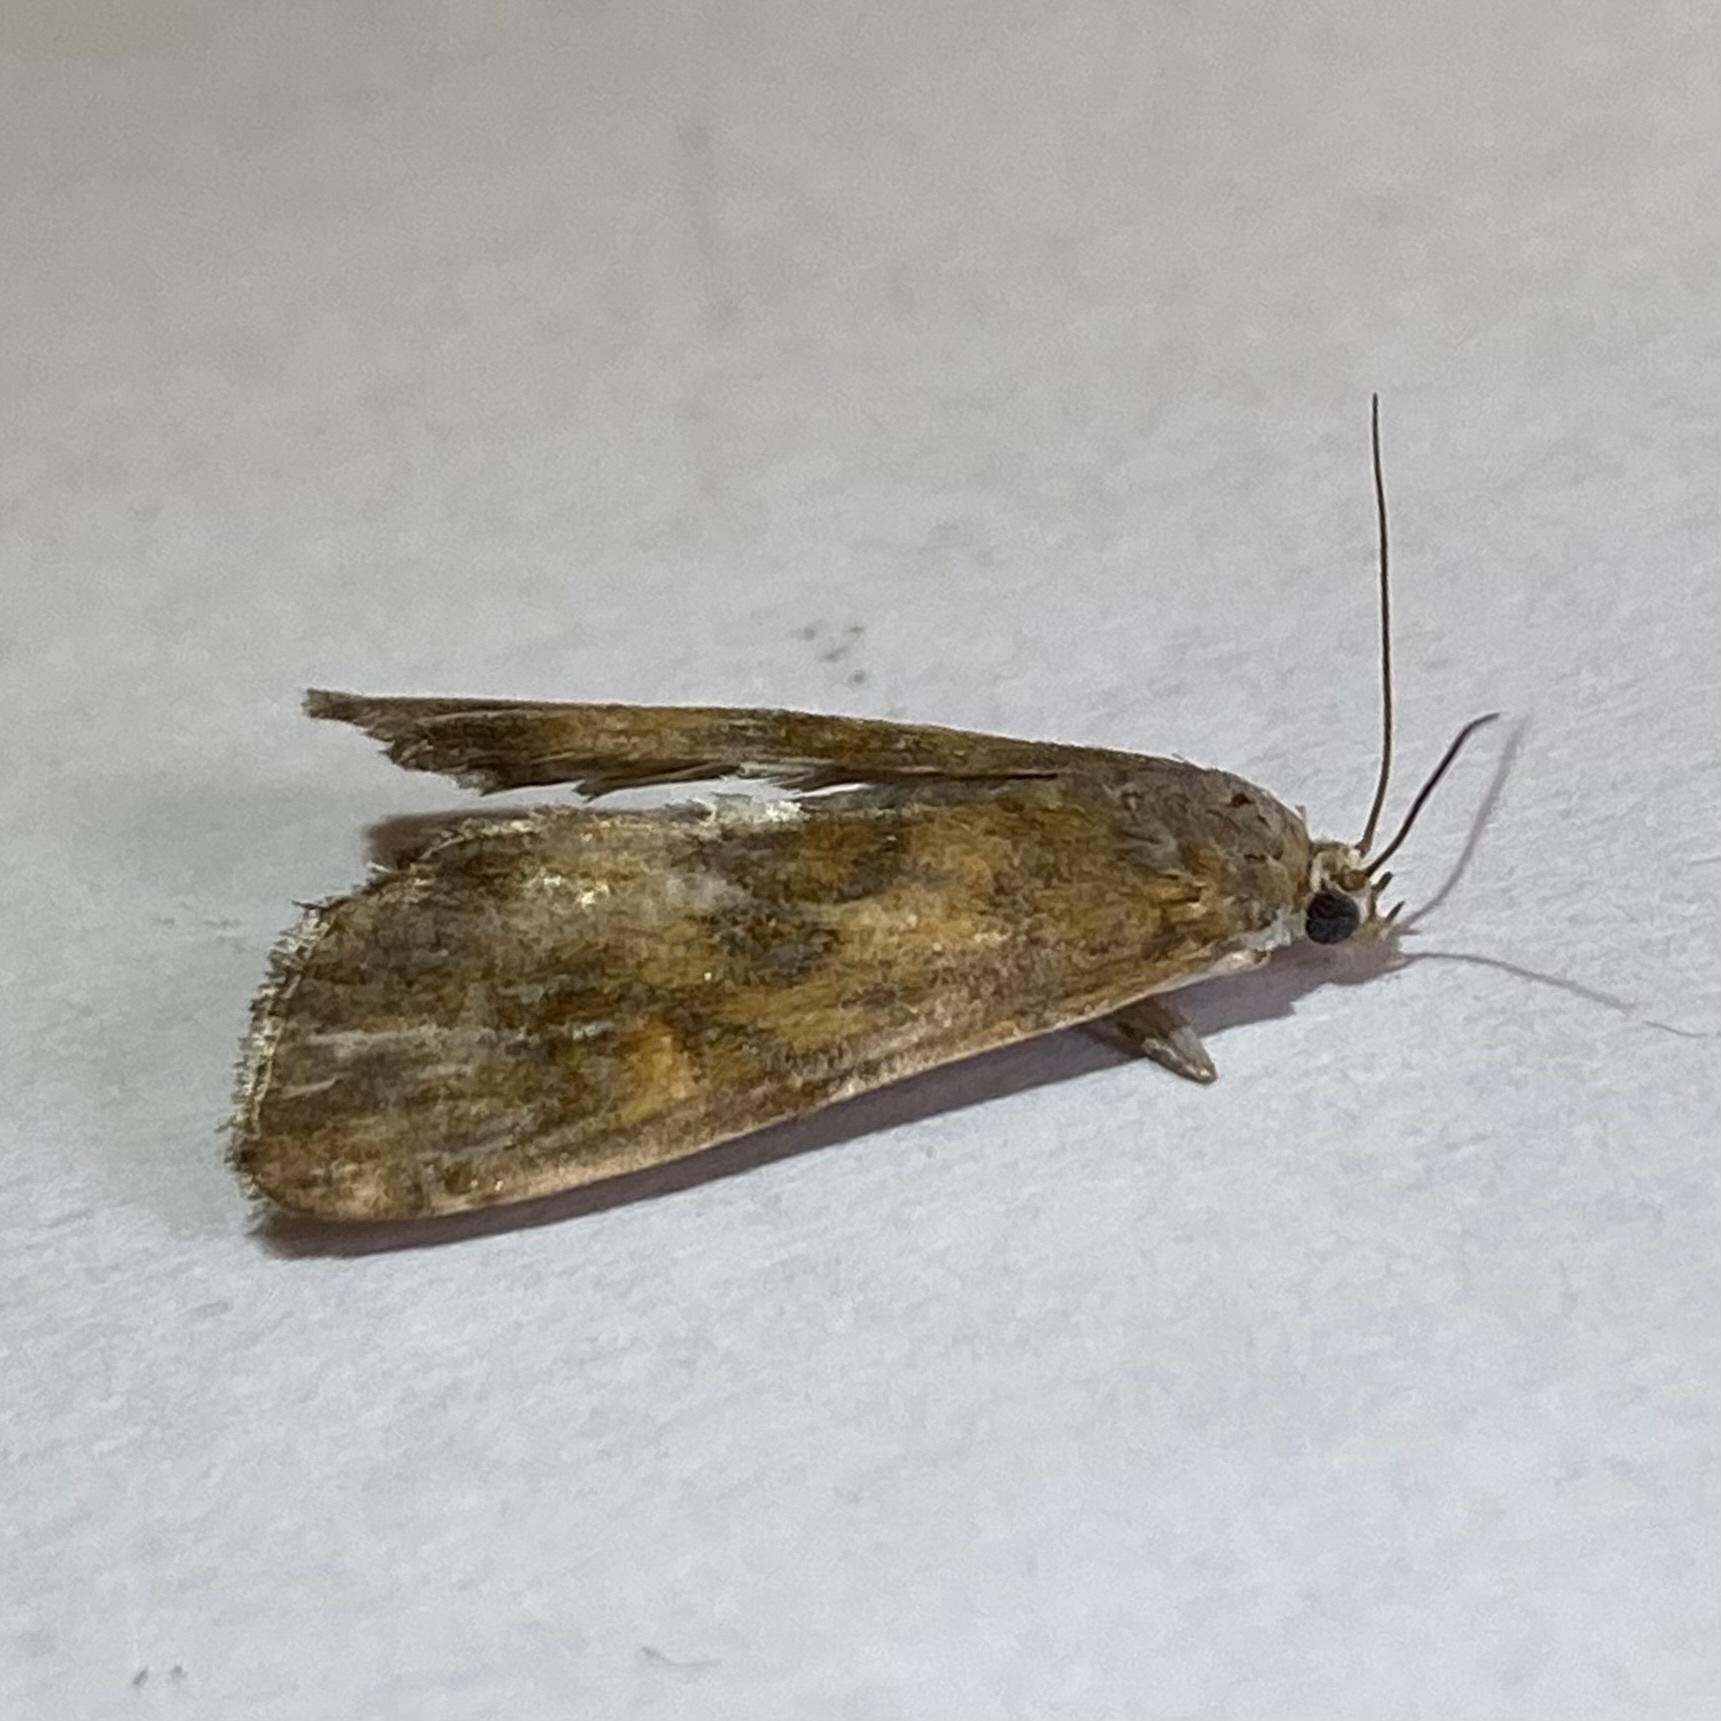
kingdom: Animalia
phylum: Arthropoda
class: Insecta
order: Lepidoptera
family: Crambidae
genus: Elophila
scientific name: Elophila gyralis
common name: Waterlily borer moth
